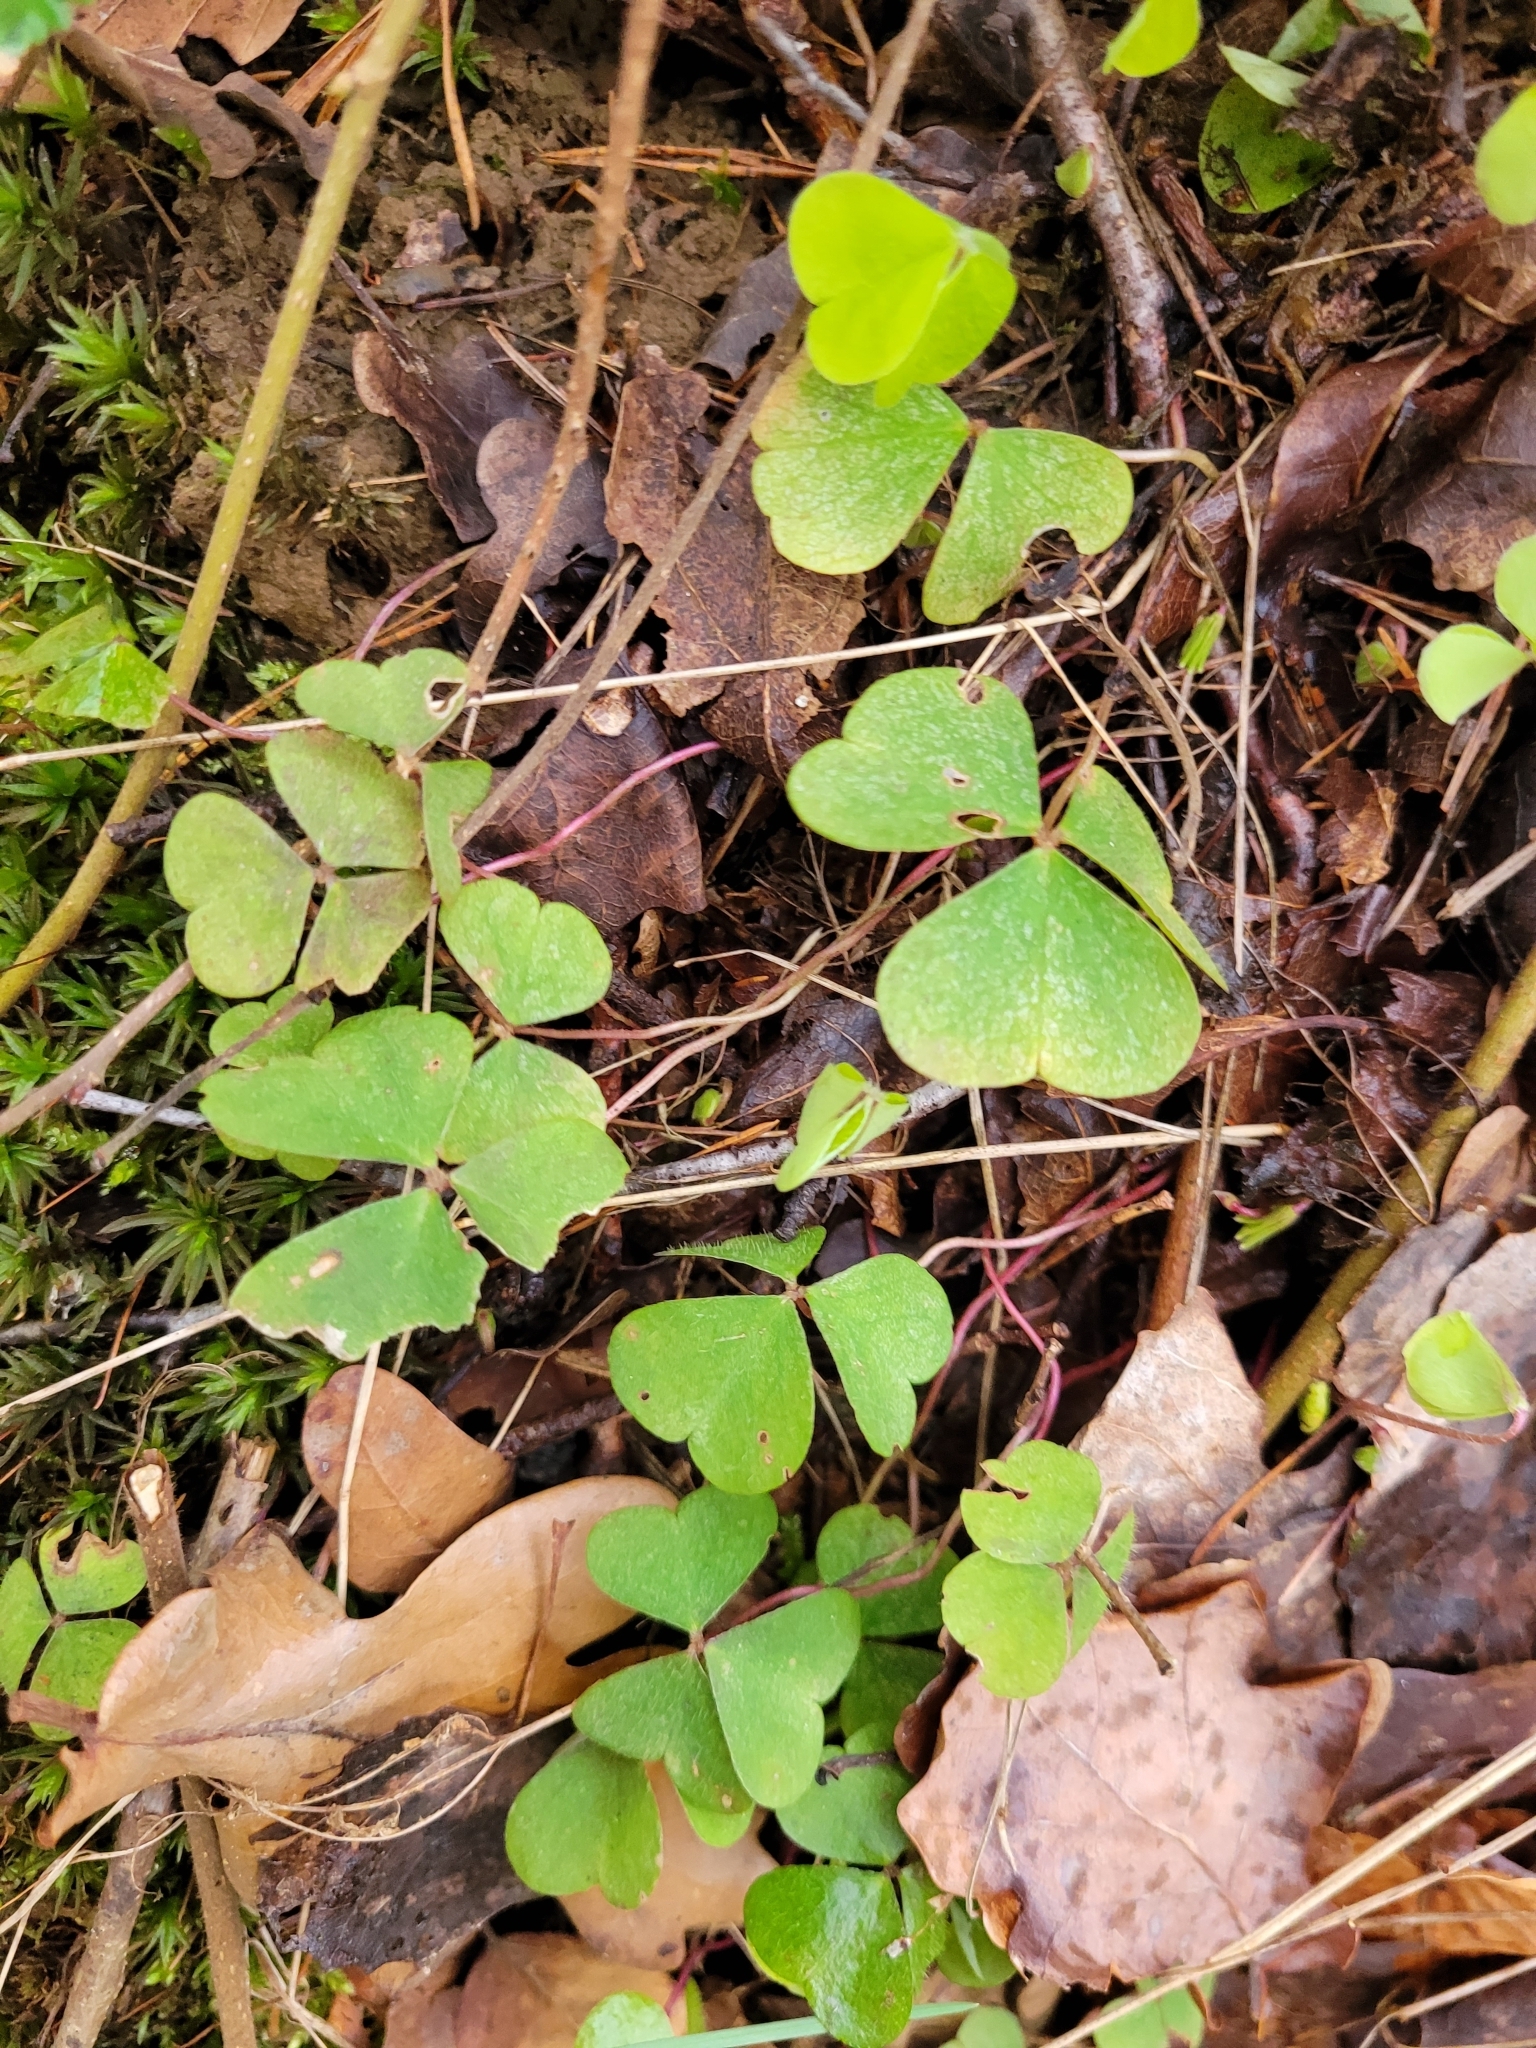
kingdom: Plantae
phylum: Tracheophyta
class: Magnoliopsida
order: Oxalidales
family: Oxalidaceae
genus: Oxalis
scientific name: Oxalis acetosella
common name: Wood-sorrel
